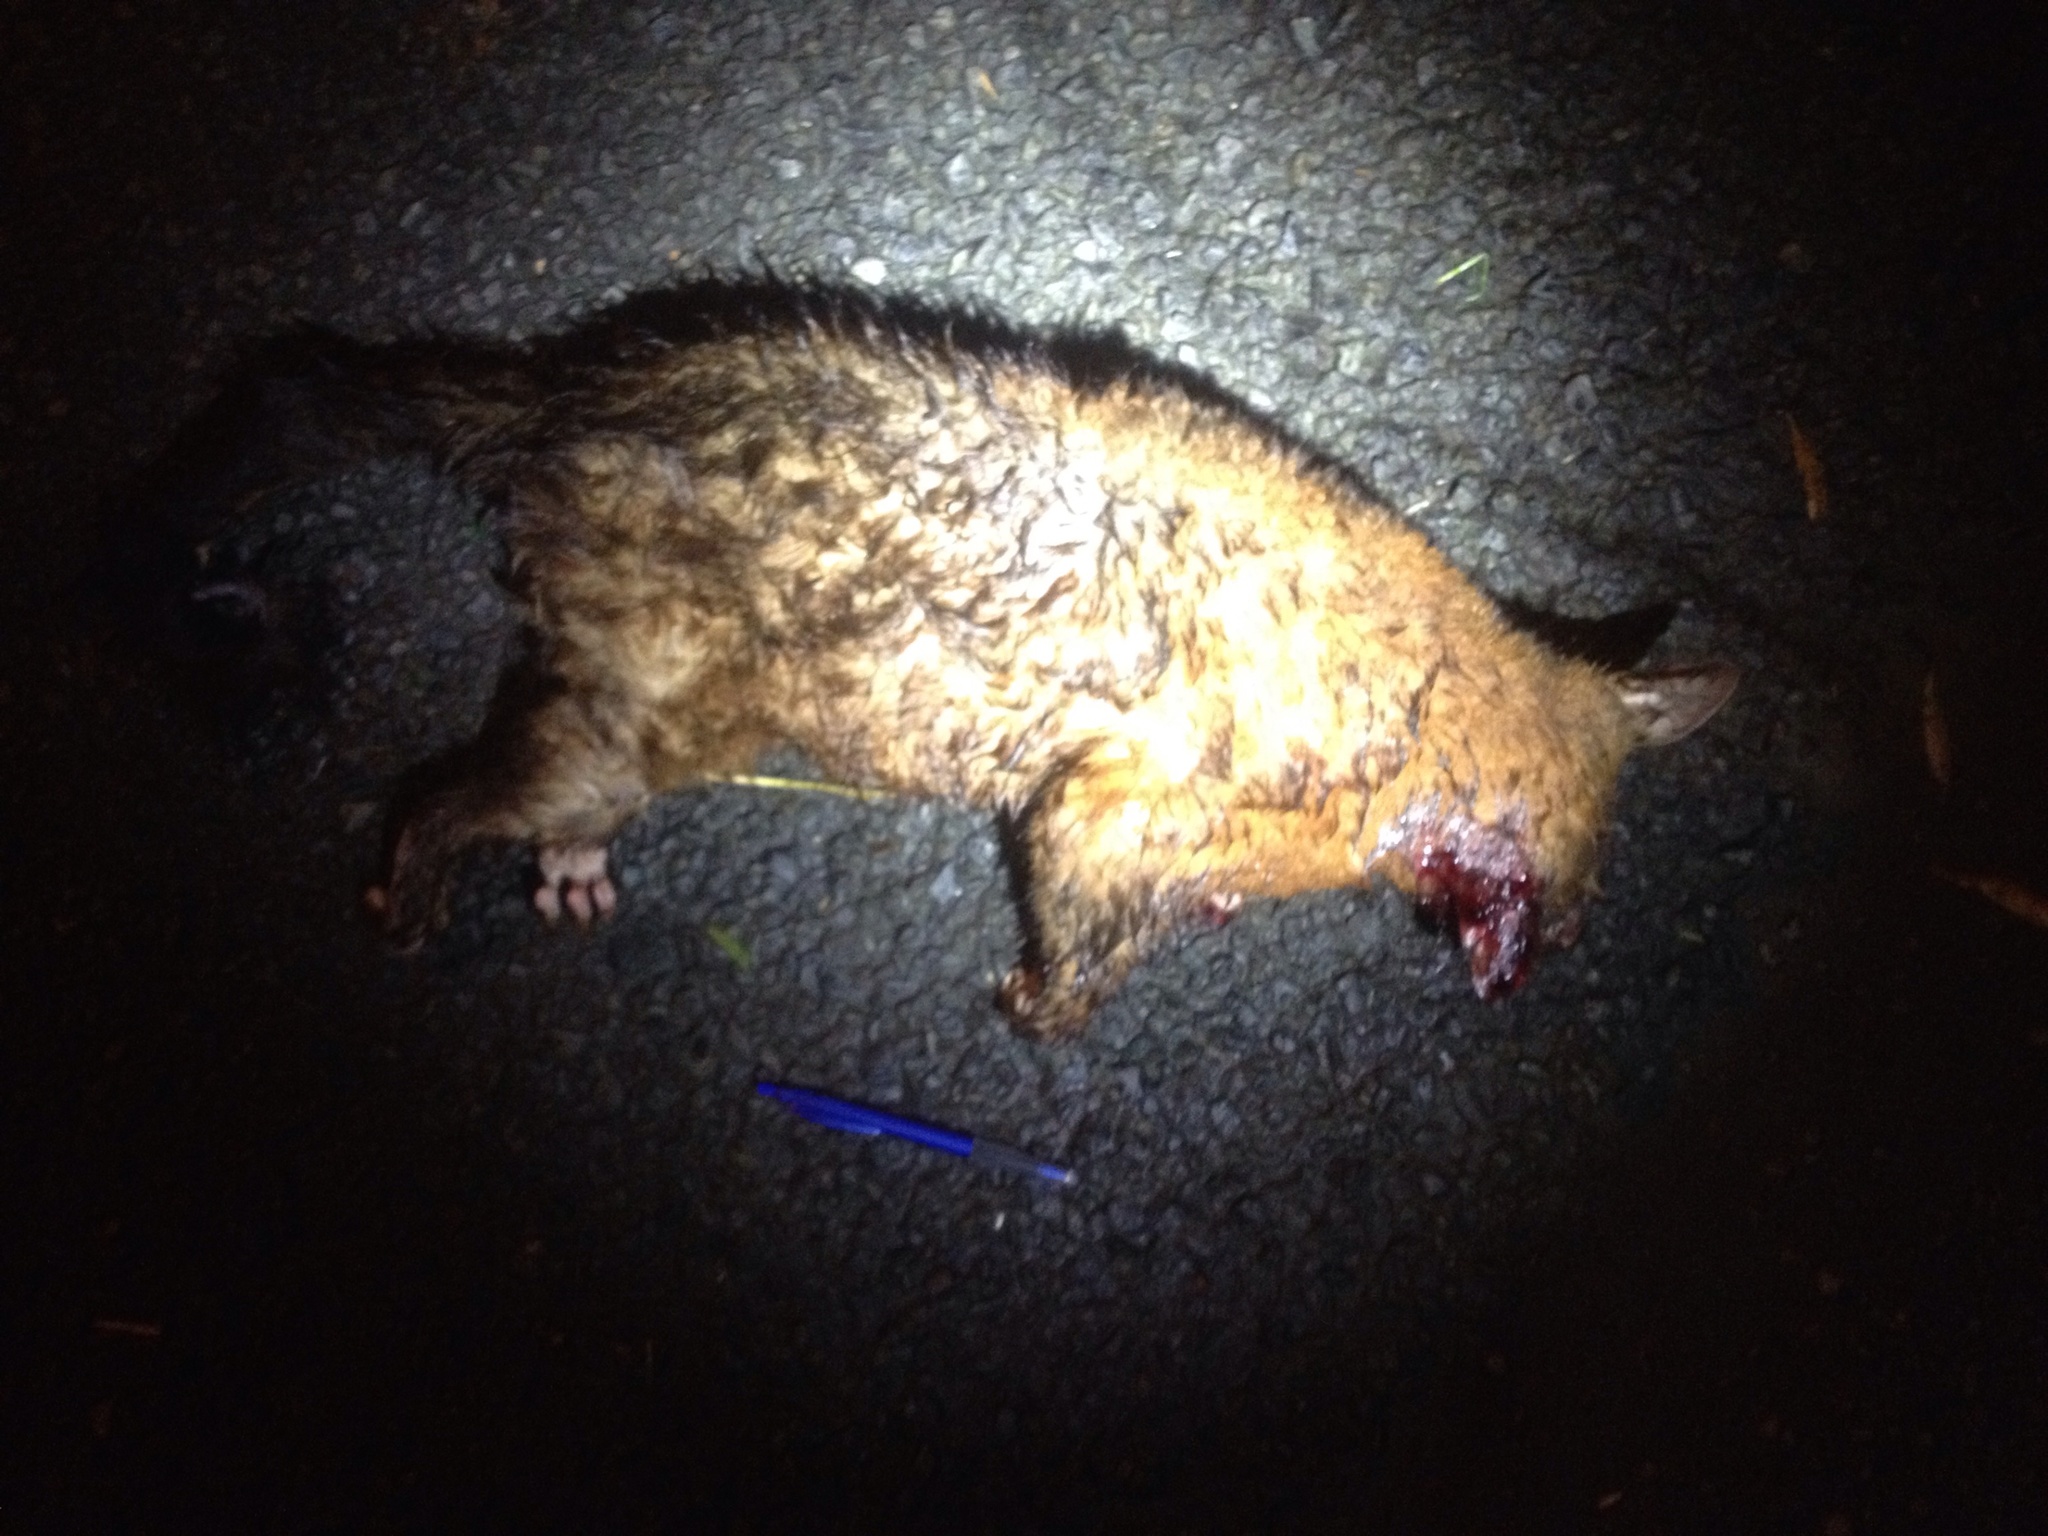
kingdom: Animalia
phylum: Chordata
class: Mammalia
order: Diprotodontia
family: Phalangeridae
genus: Trichosurus
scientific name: Trichosurus vulpecula
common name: Common brushtail
